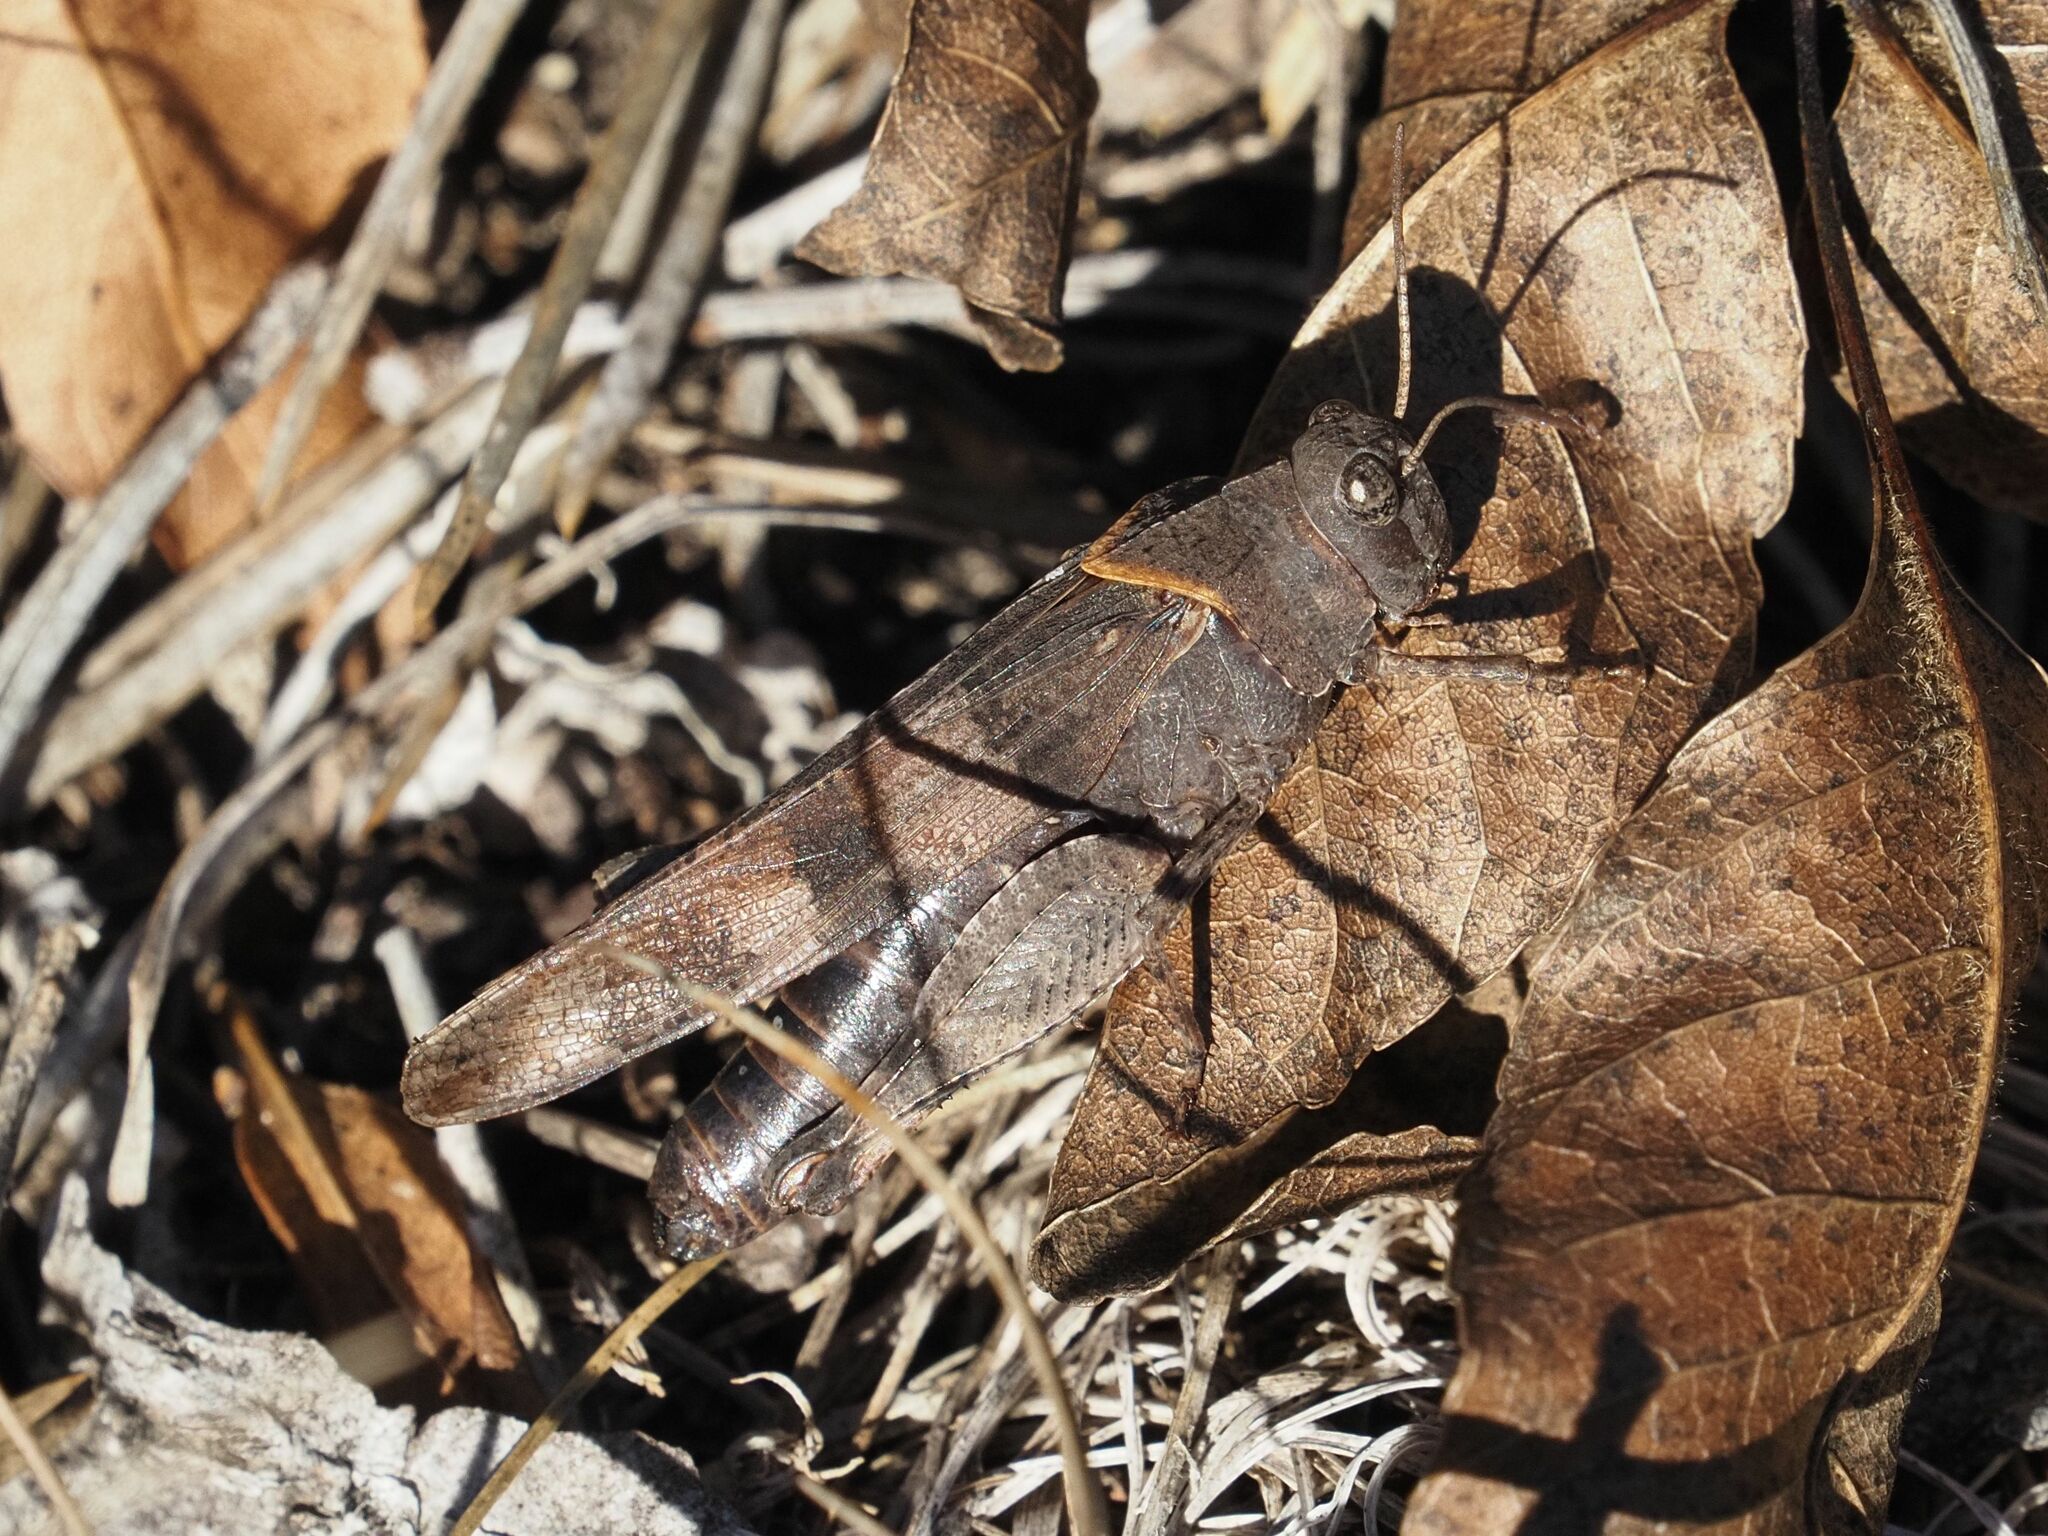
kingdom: Animalia
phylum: Arthropoda
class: Insecta
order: Orthoptera
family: Acrididae
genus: Oedipoda
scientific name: Oedipoda caerulescens
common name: Blue-winged grasshopper
